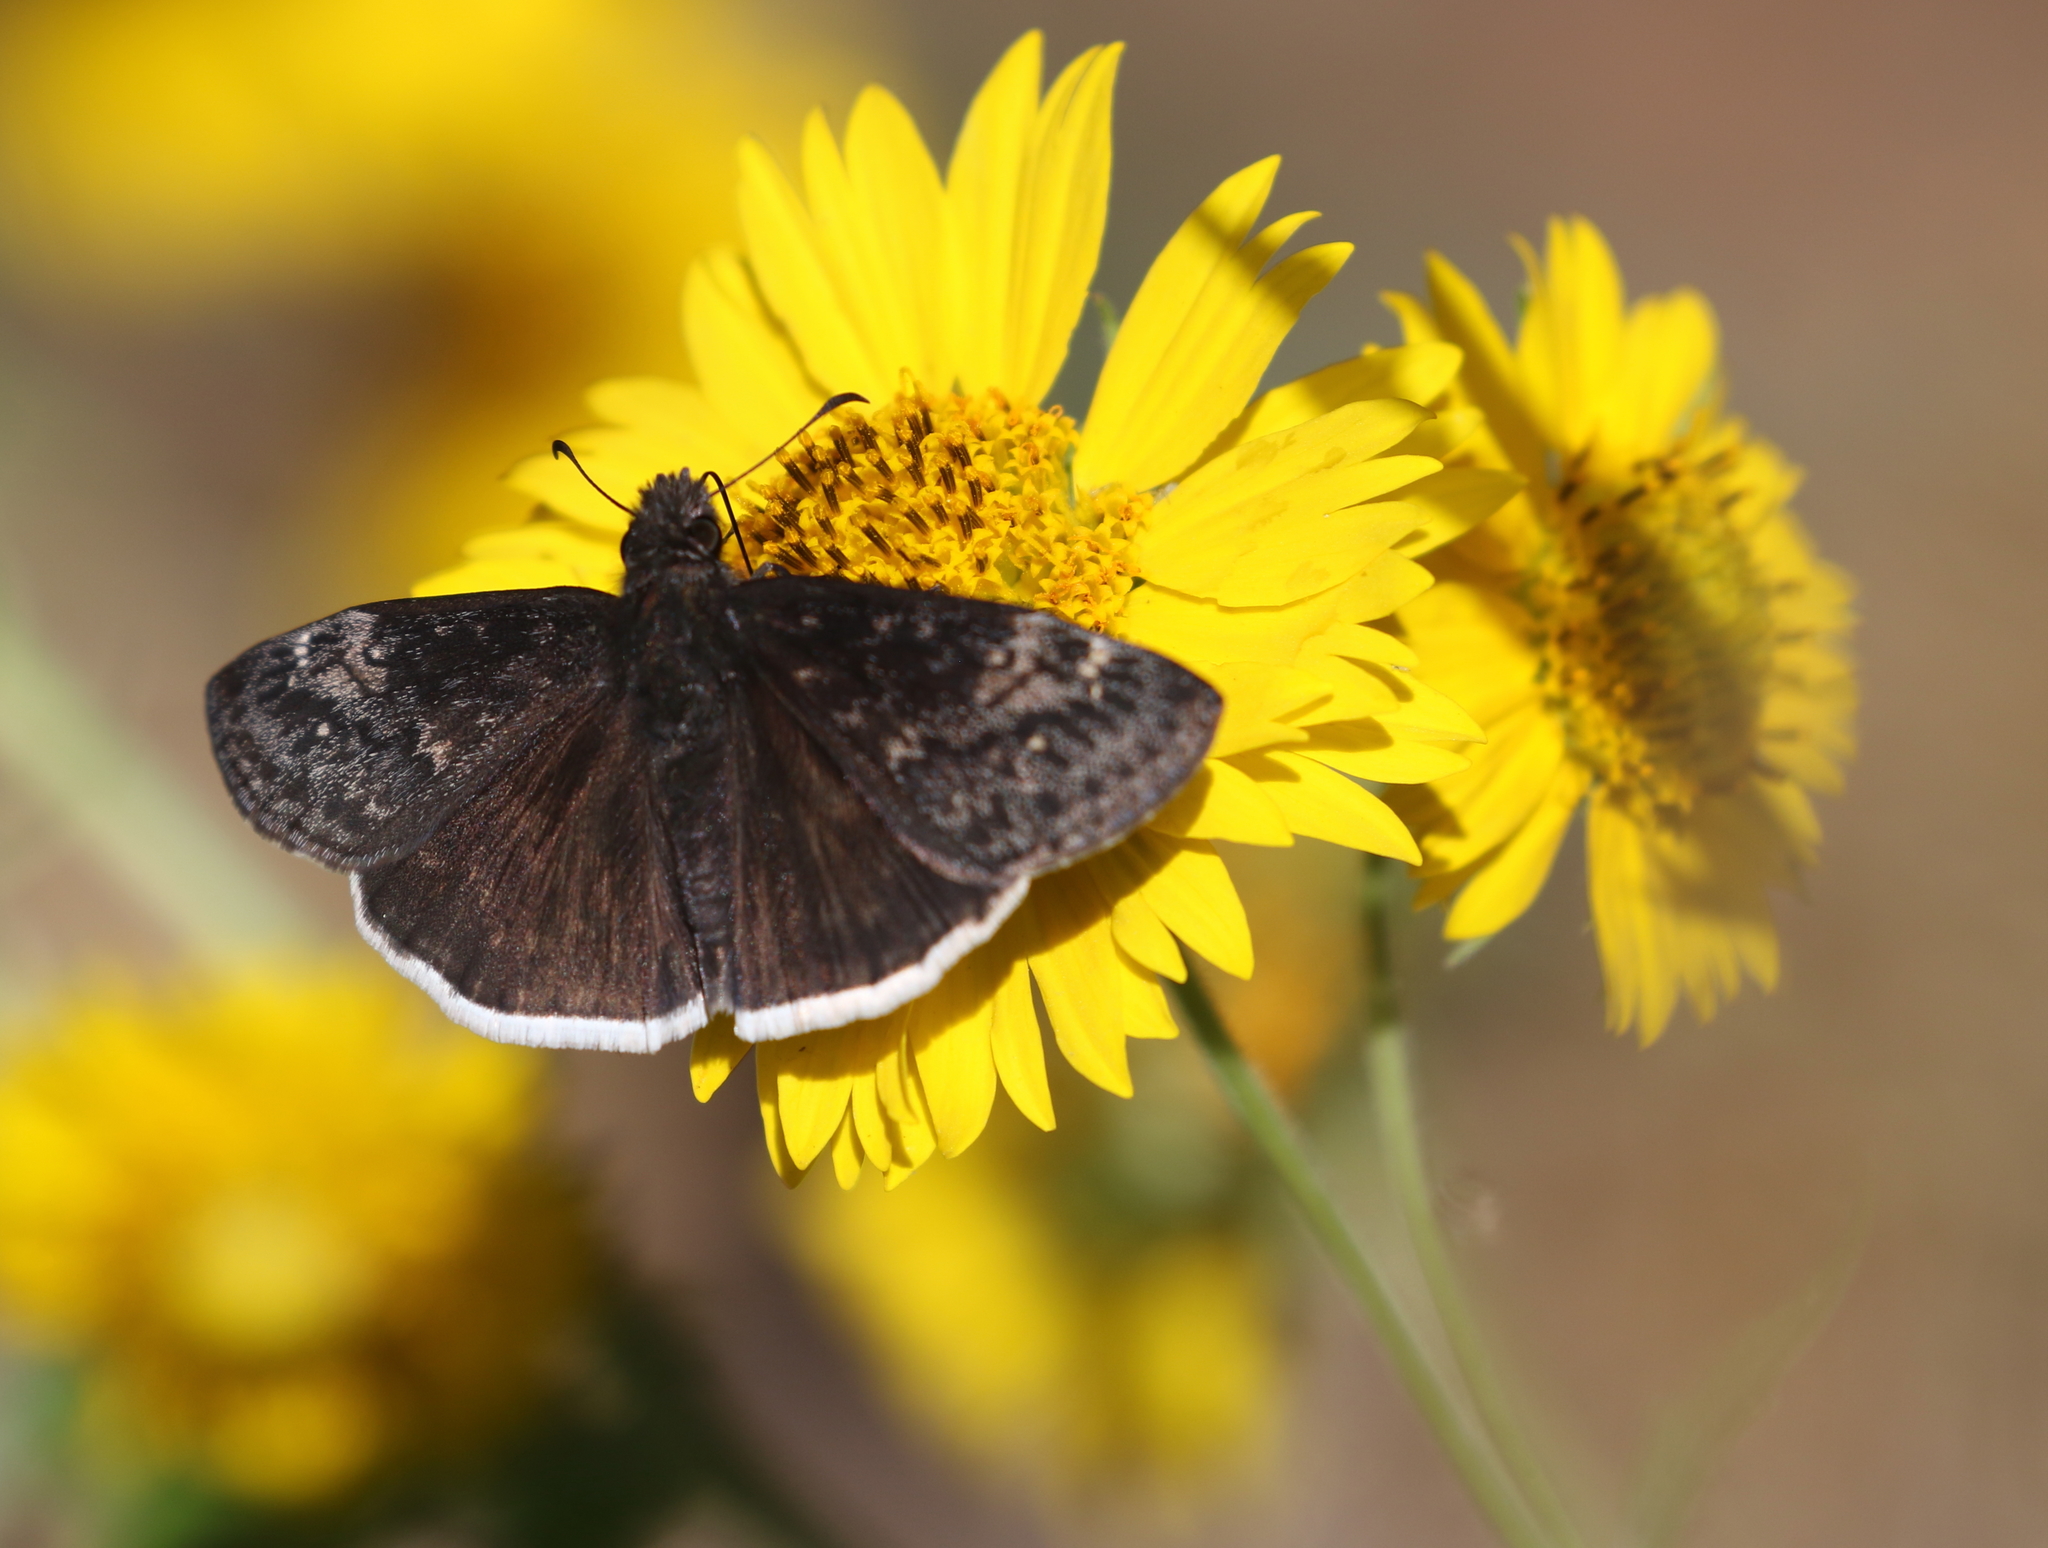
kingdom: Animalia
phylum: Arthropoda
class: Insecta
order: Lepidoptera
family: Hesperiidae
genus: Erynnis
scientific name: Erynnis funeralis
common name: Funereal duskywing
